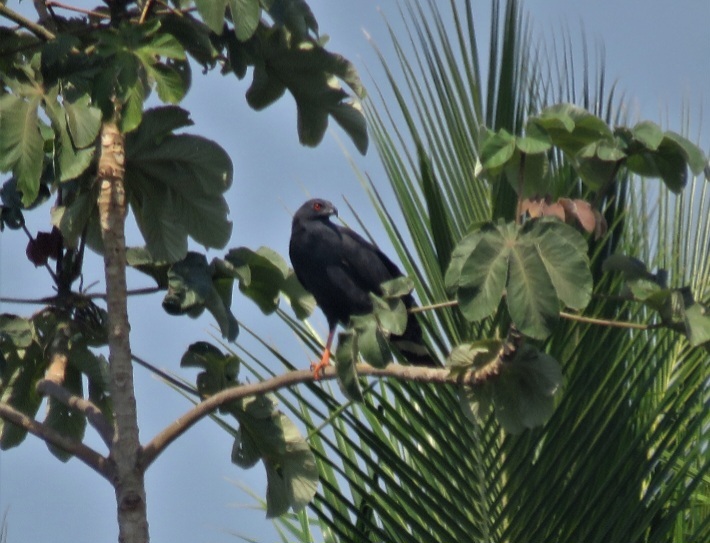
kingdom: Animalia
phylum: Chordata
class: Aves
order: Accipitriformes
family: Accipitridae
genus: Geranospiza
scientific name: Geranospiza caerulescens
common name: Crane hawk
